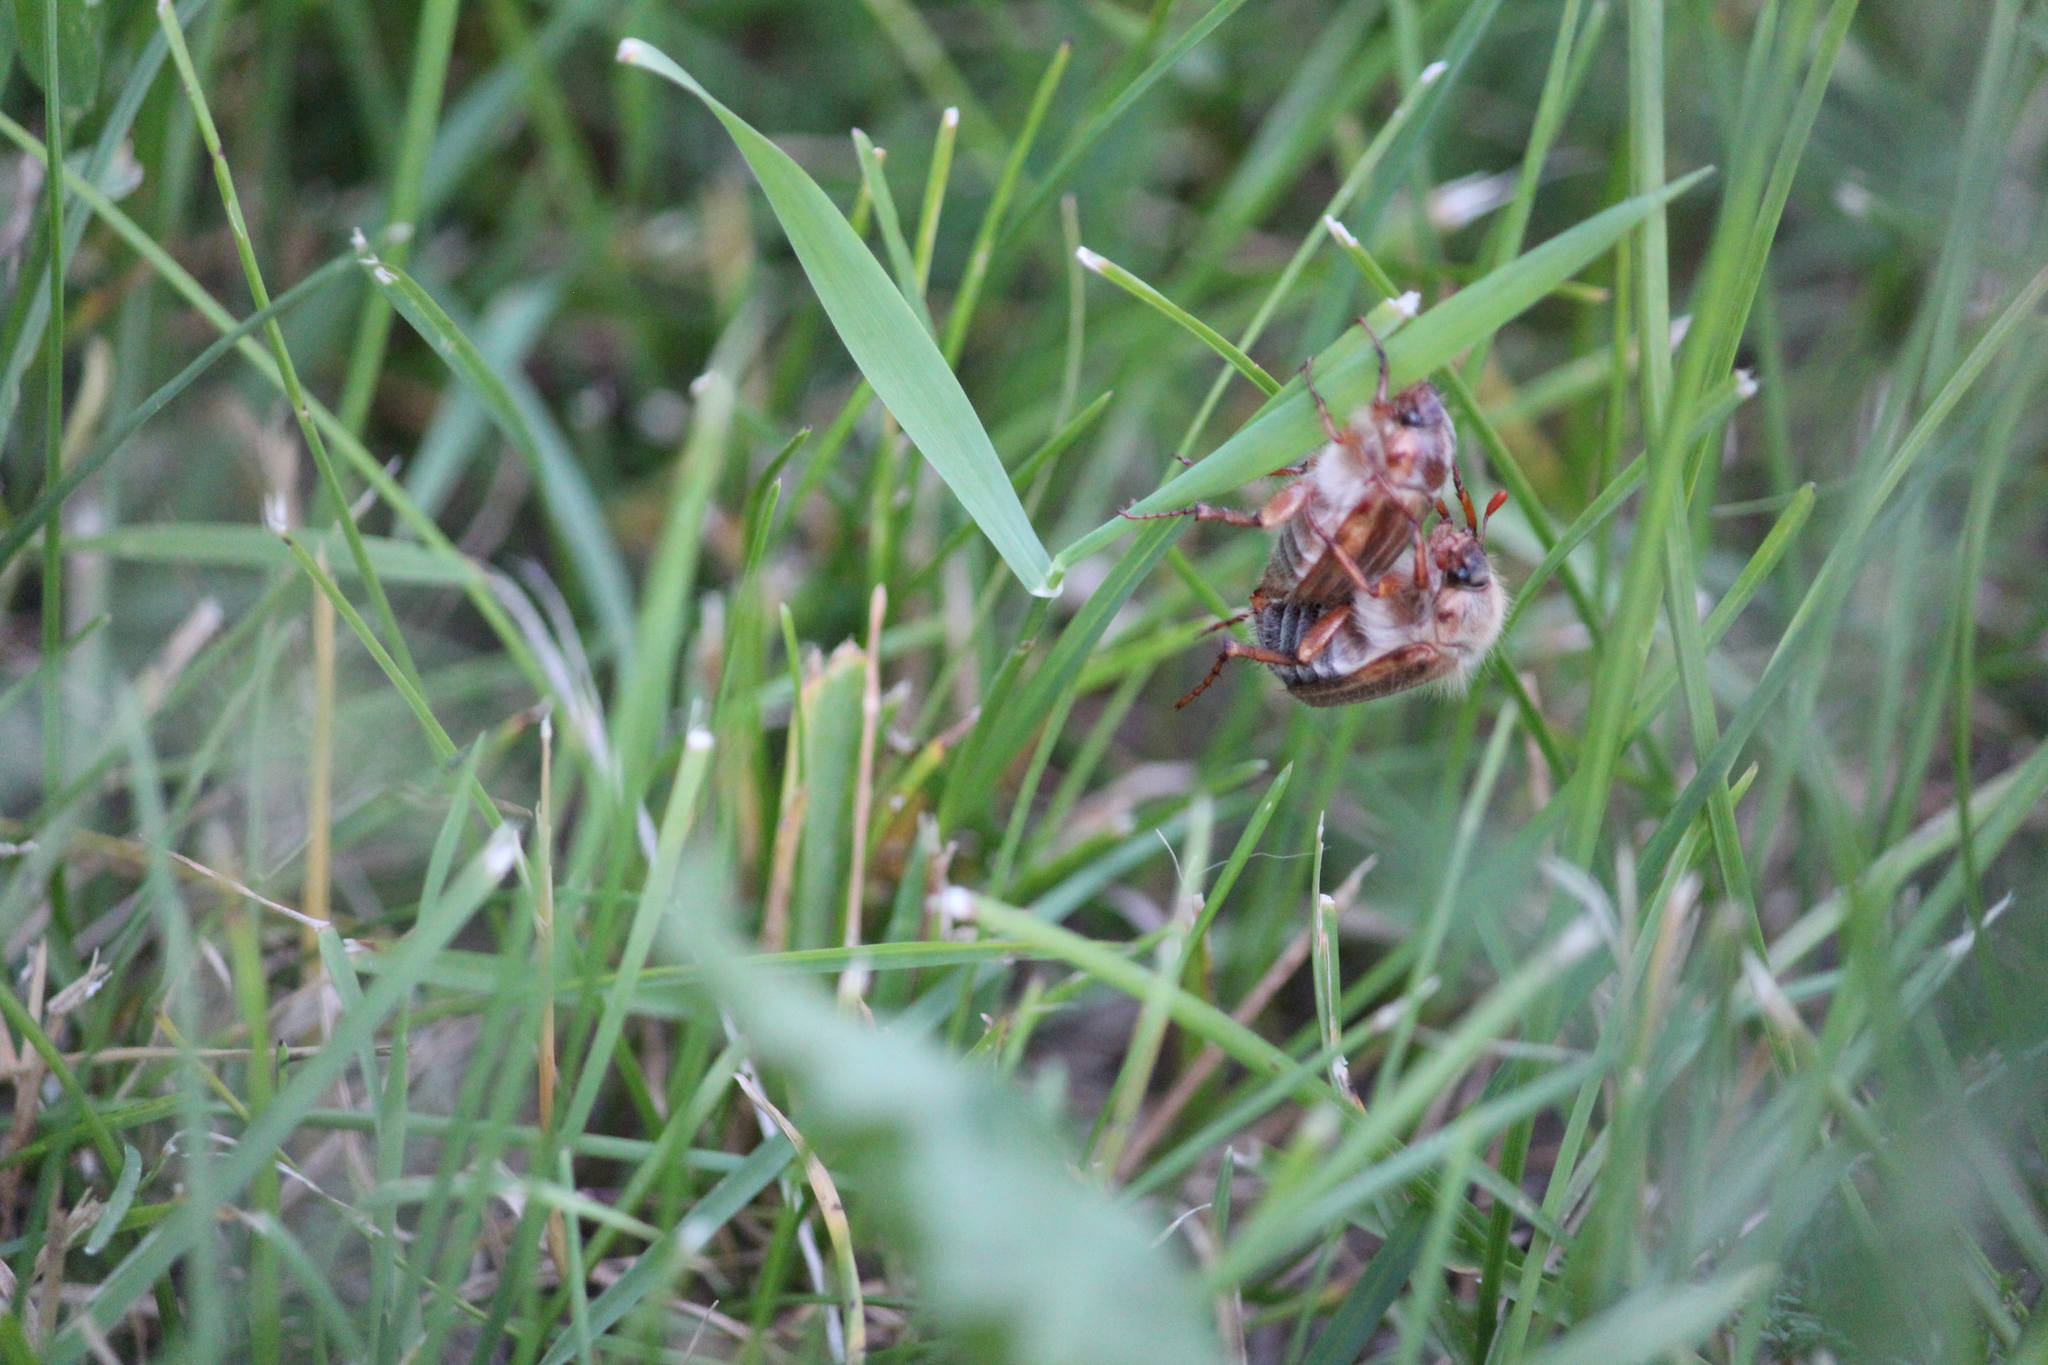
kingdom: Animalia
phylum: Arthropoda
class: Insecta
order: Coleoptera
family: Scarabaeidae
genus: Amphimallon
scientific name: Amphimallon solstitiale
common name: Summer chafer
